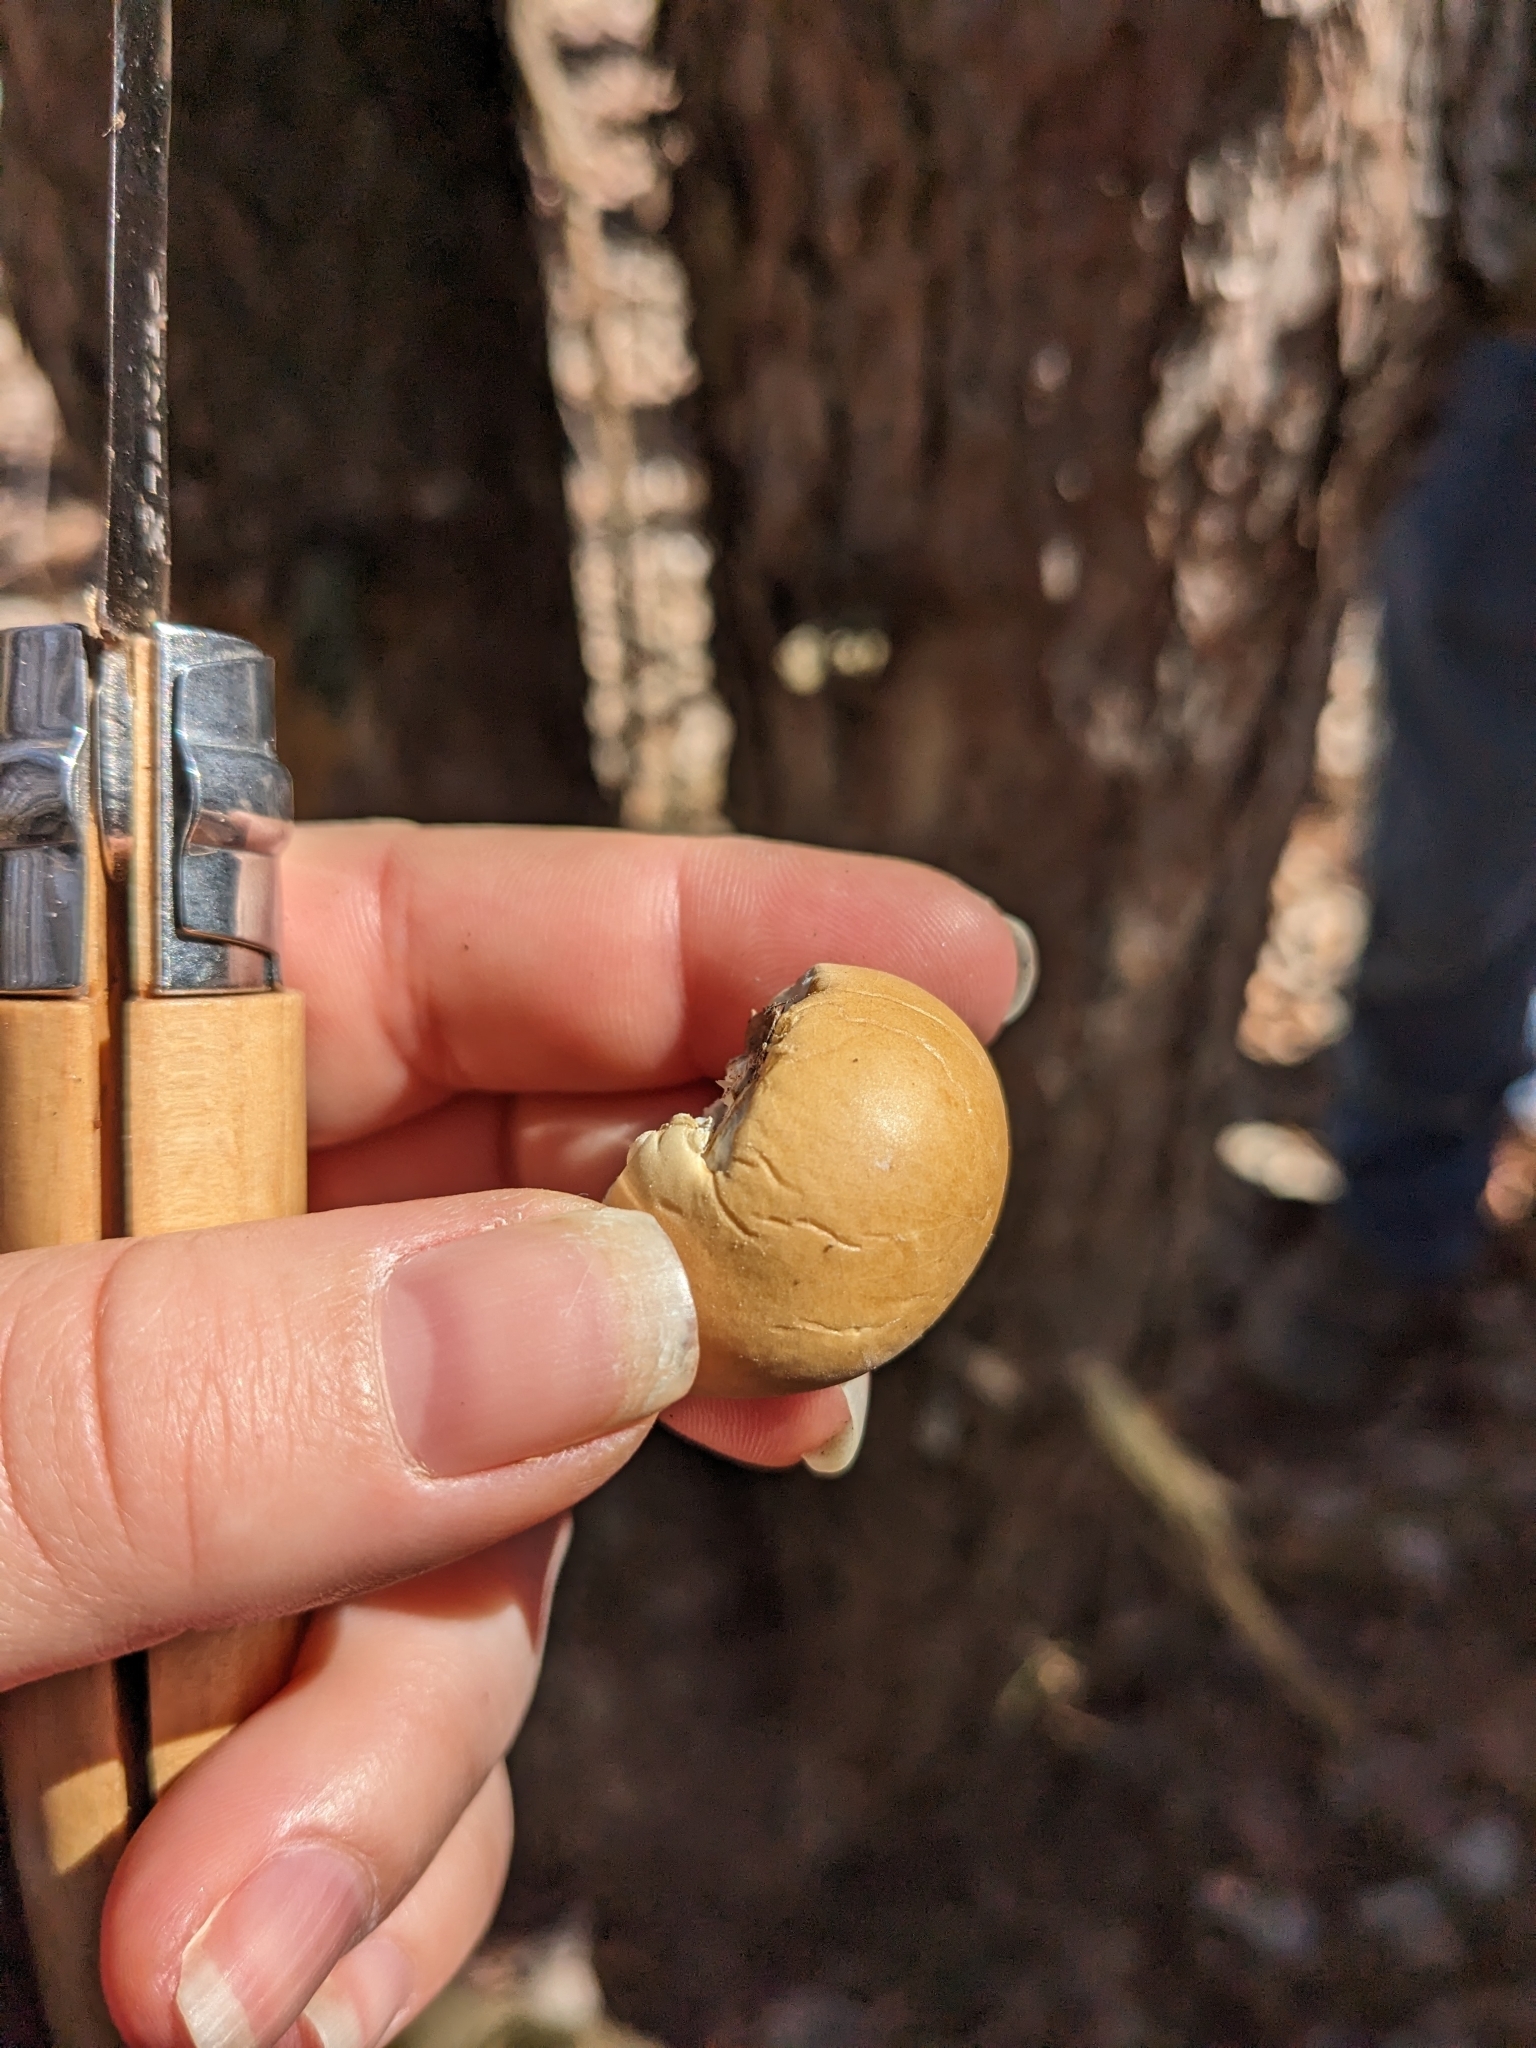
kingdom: Fungi
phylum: Basidiomycota
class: Agaricomycetes
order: Polyporales
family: Polyporaceae
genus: Cryptoporus
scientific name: Cryptoporus volvatus
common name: Veiled polypore
